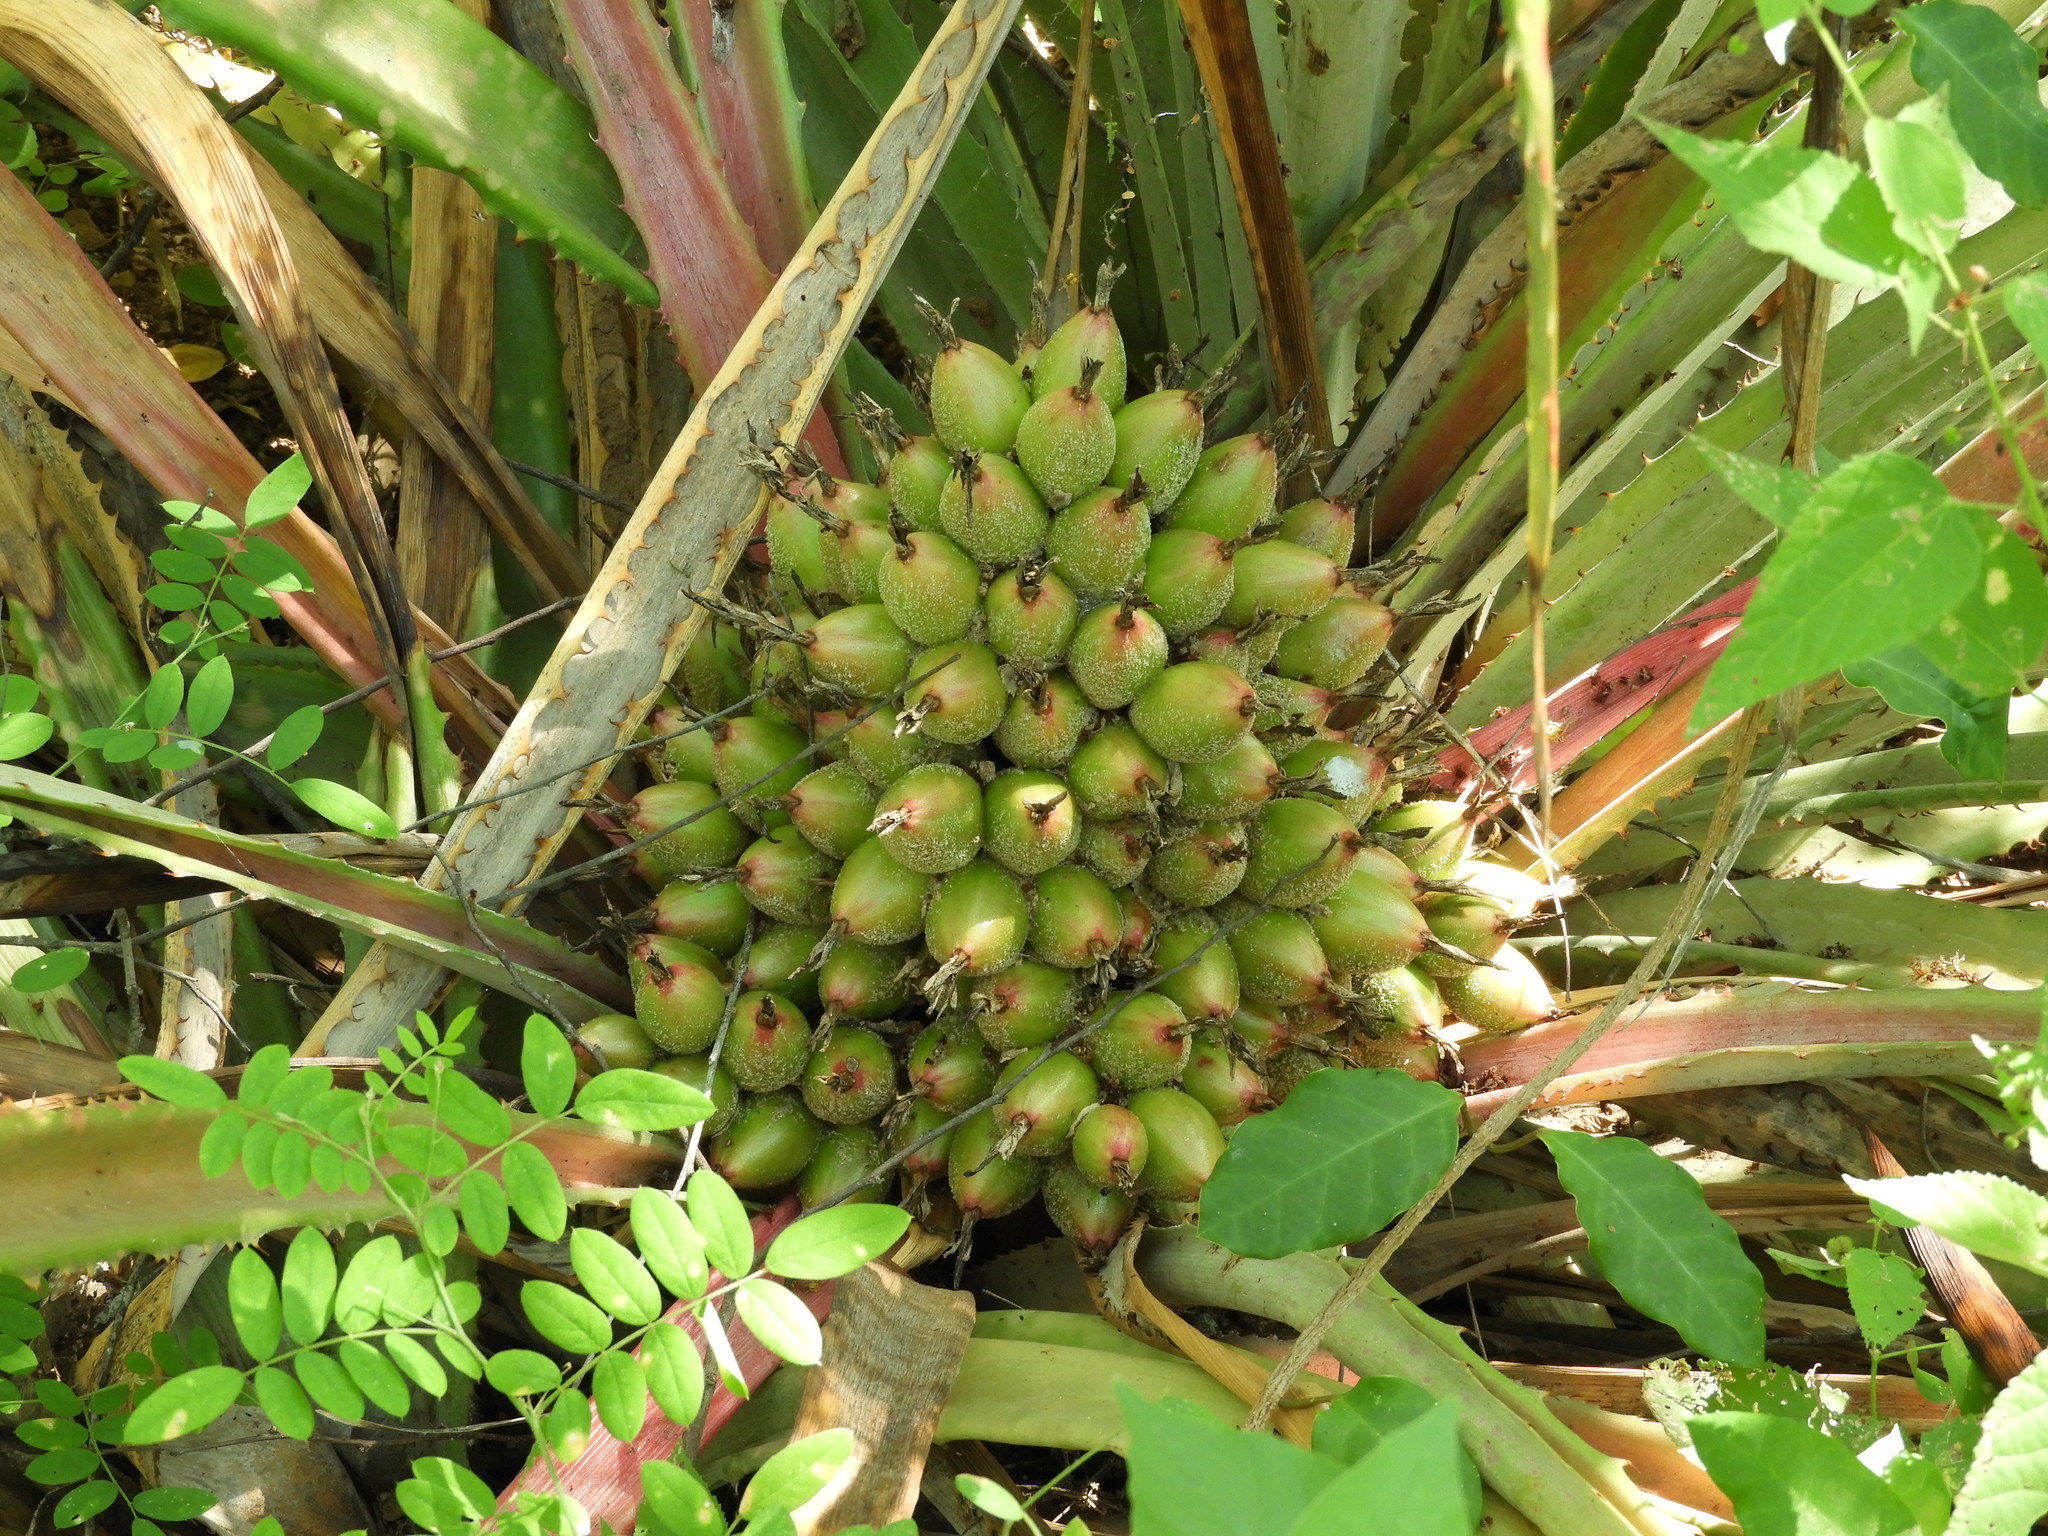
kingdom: Plantae
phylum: Tracheophyta
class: Liliopsida
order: Poales
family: Bromeliaceae
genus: Bromelia
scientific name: Bromelia hemisphaerica
